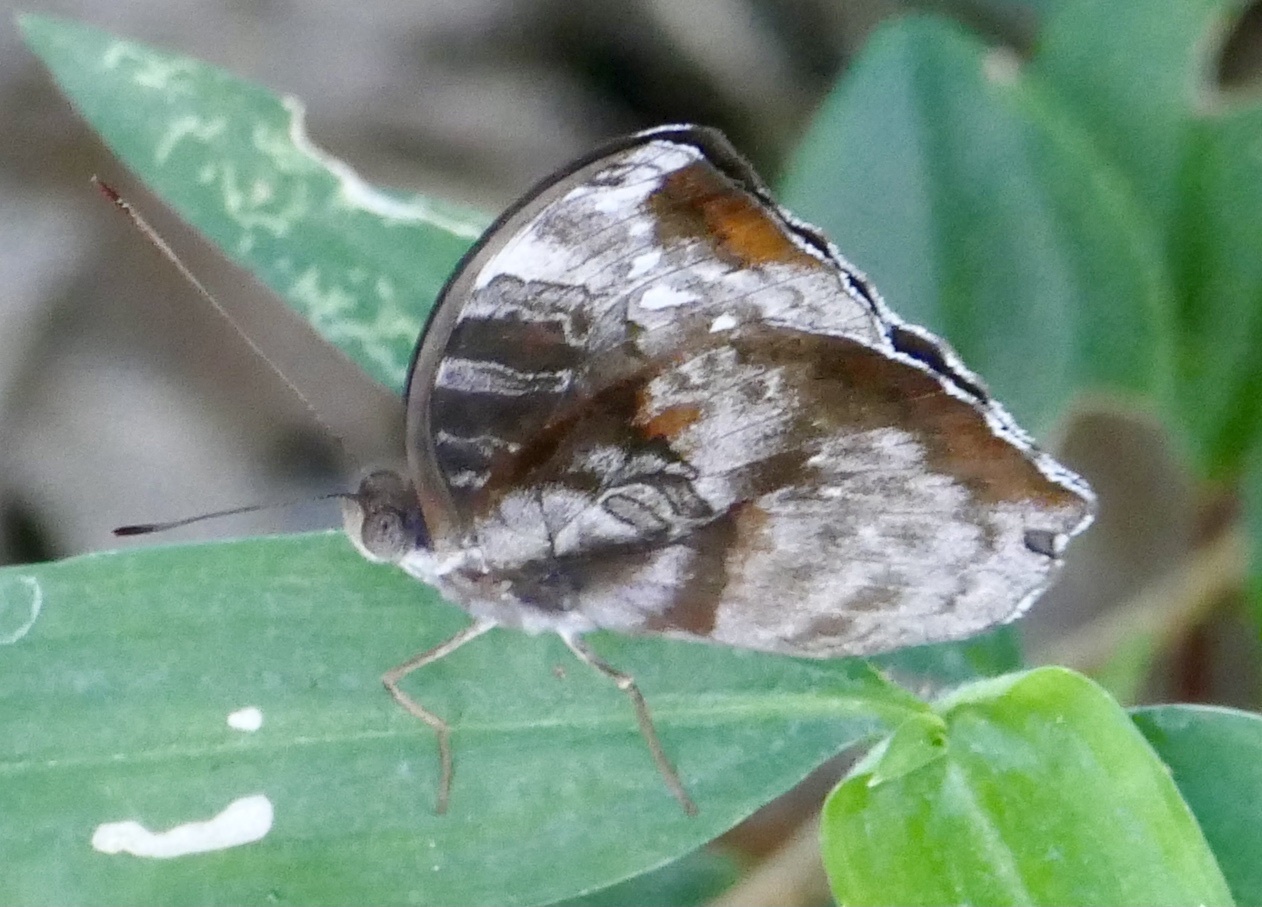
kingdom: Animalia
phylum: Arthropoda
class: Insecta
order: Lepidoptera
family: Nymphalidae
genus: Cynandra
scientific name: Cynandra opis
